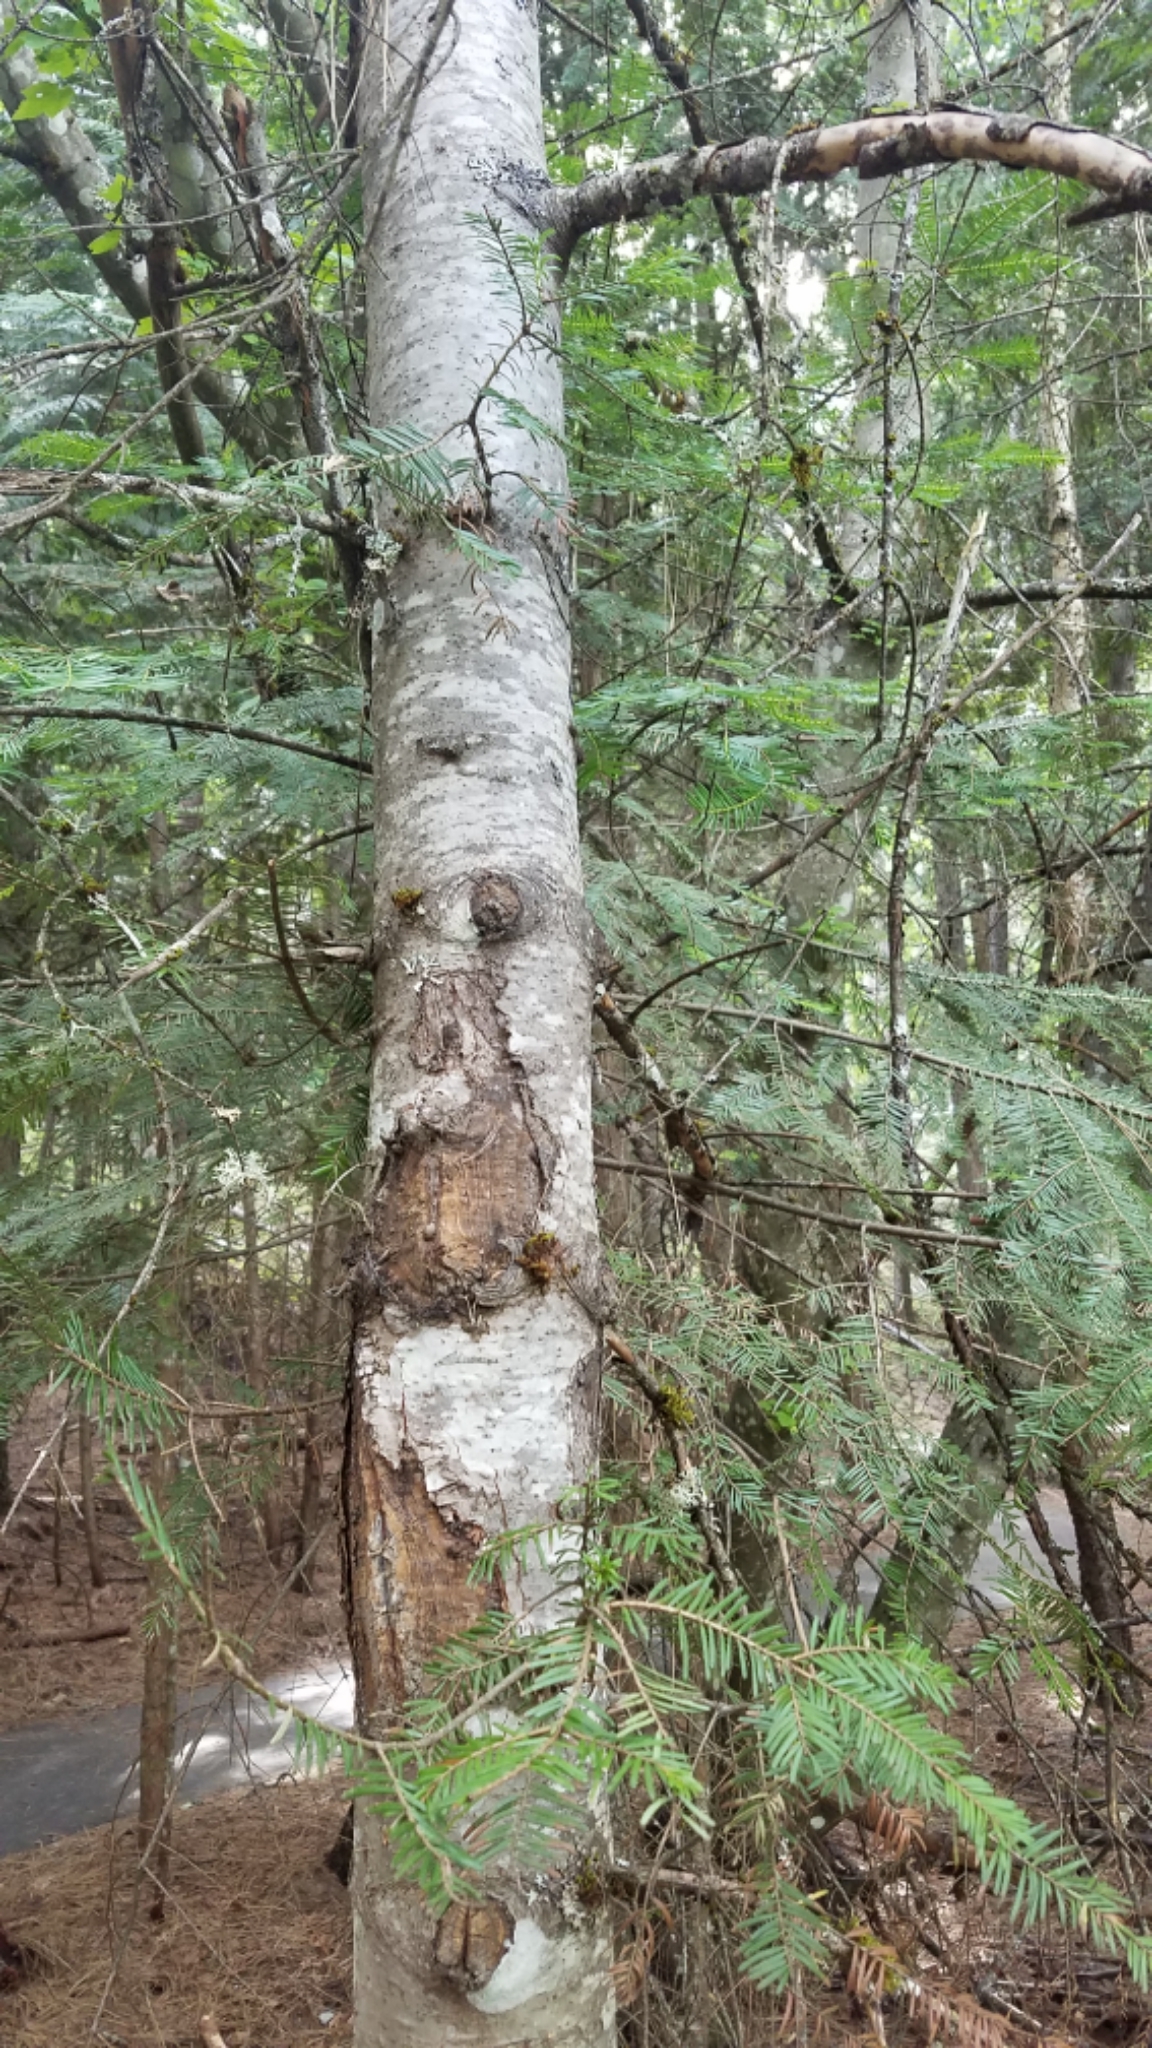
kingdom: Plantae
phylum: Tracheophyta
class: Pinopsida
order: Pinales
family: Pinaceae
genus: Abies
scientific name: Abies grandis
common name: Giant fir
